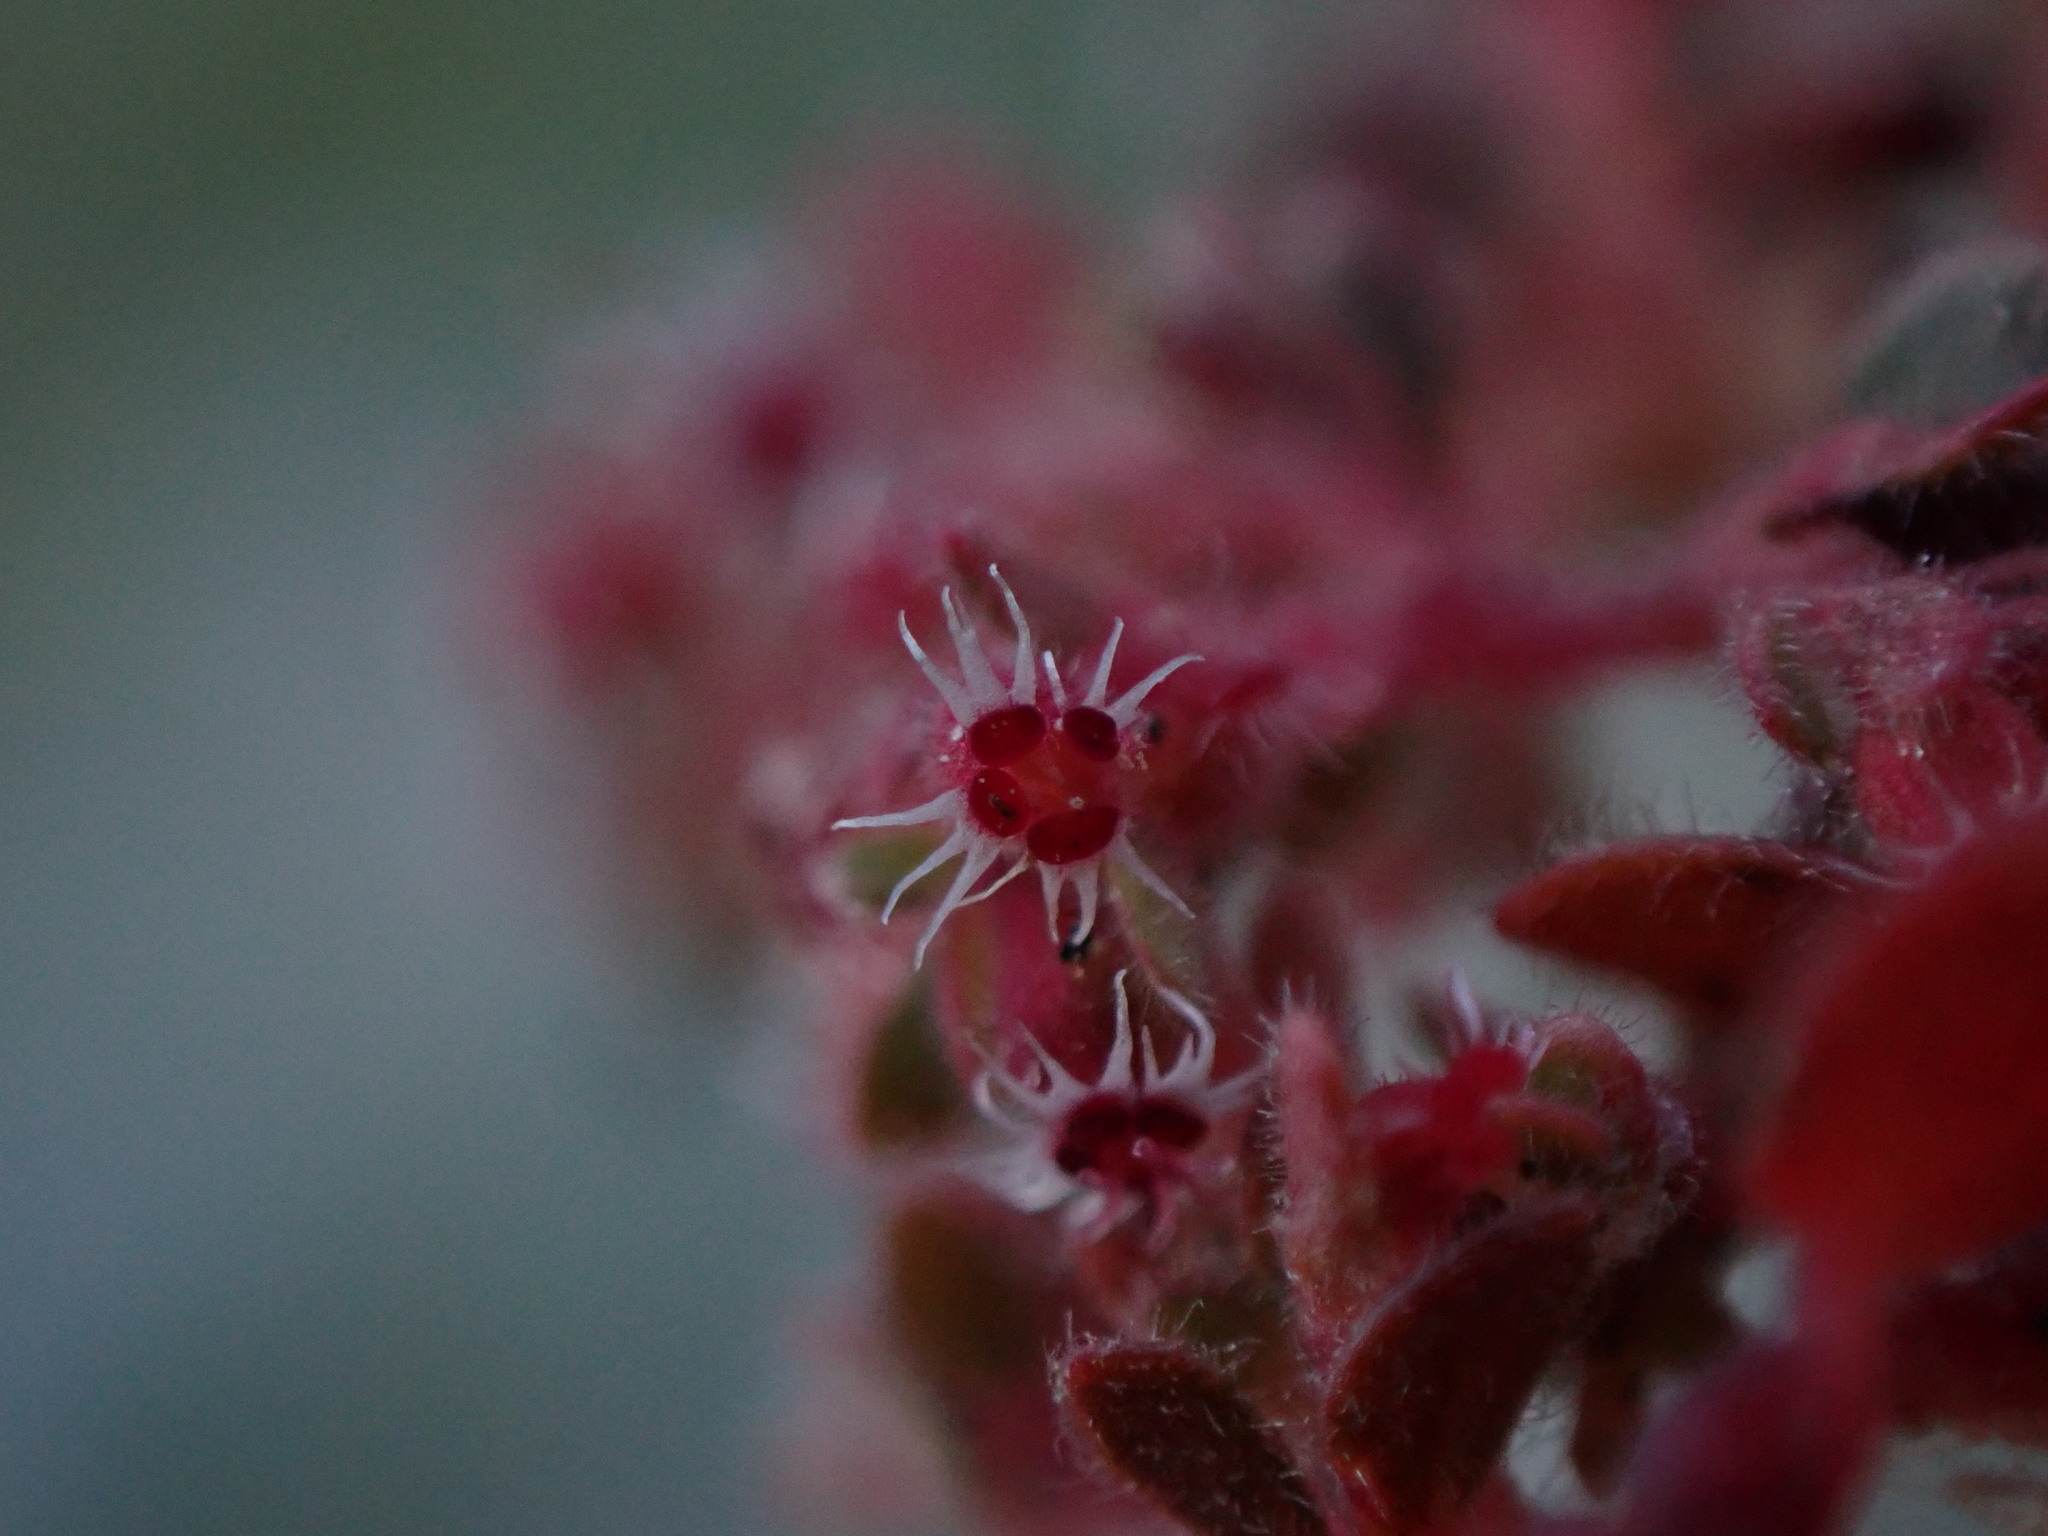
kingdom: Plantae
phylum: Tracheophyta
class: Magnoliopsida
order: Malpighiales
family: Euphorbiaceae
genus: Euphorbia
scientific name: Euphorbia setiloba
